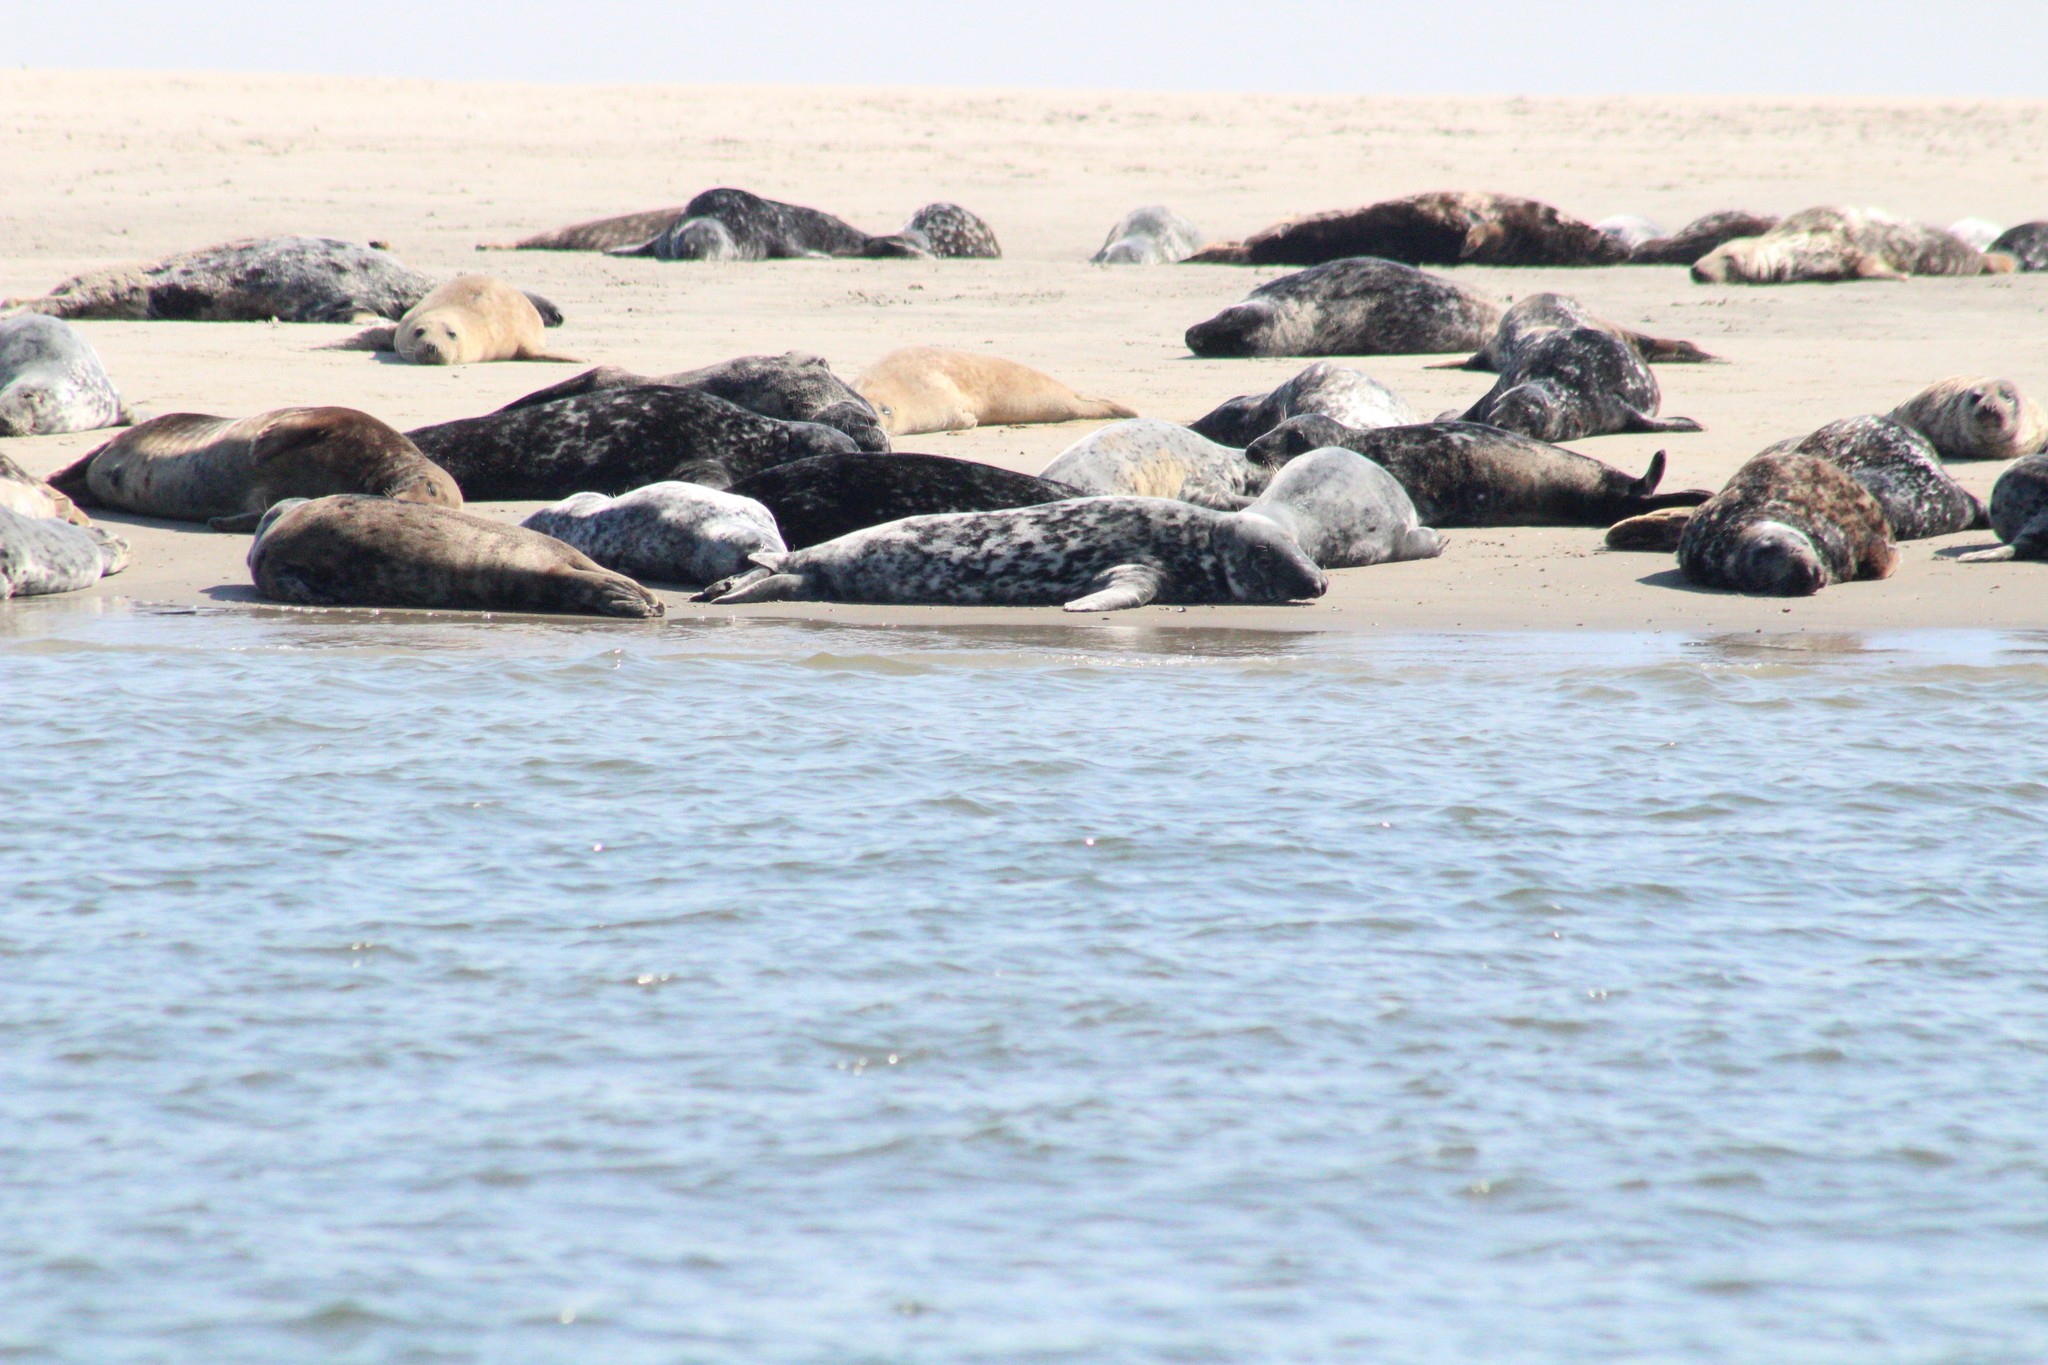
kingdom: Animalia
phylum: Chordata
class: Mammalia
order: Carnivora
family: Phocidae
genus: Halichoerus
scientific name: Halichoerus grypus
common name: Grey seal
